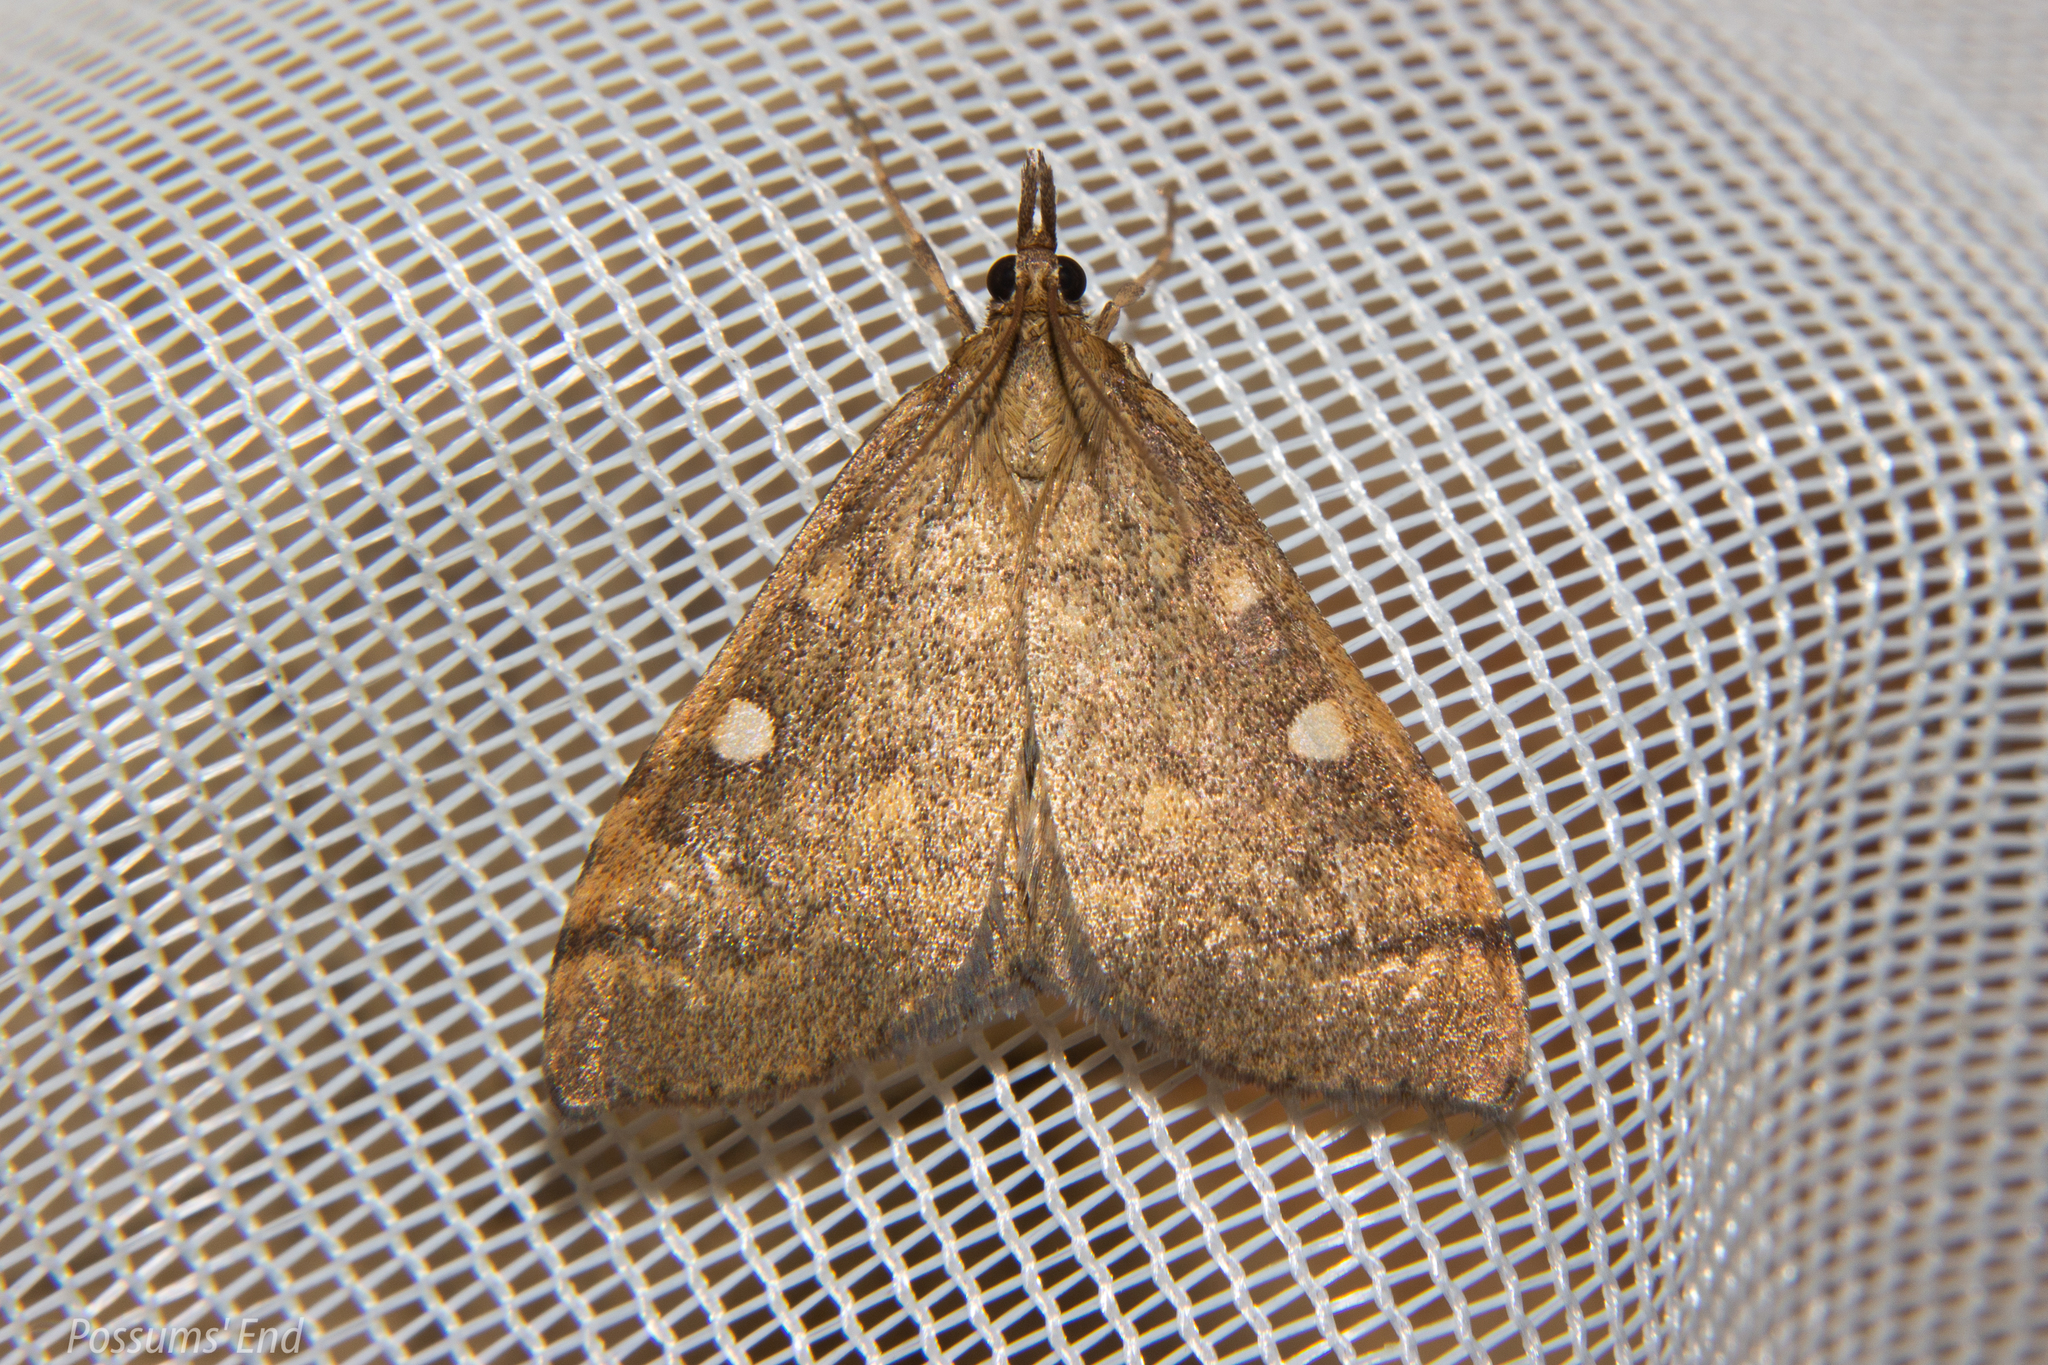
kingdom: Animalia
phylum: Arthropoda
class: Insecta
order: Lepidoptera
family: Crambidae
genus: Udea
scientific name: Udea Mnesictena marmarina
